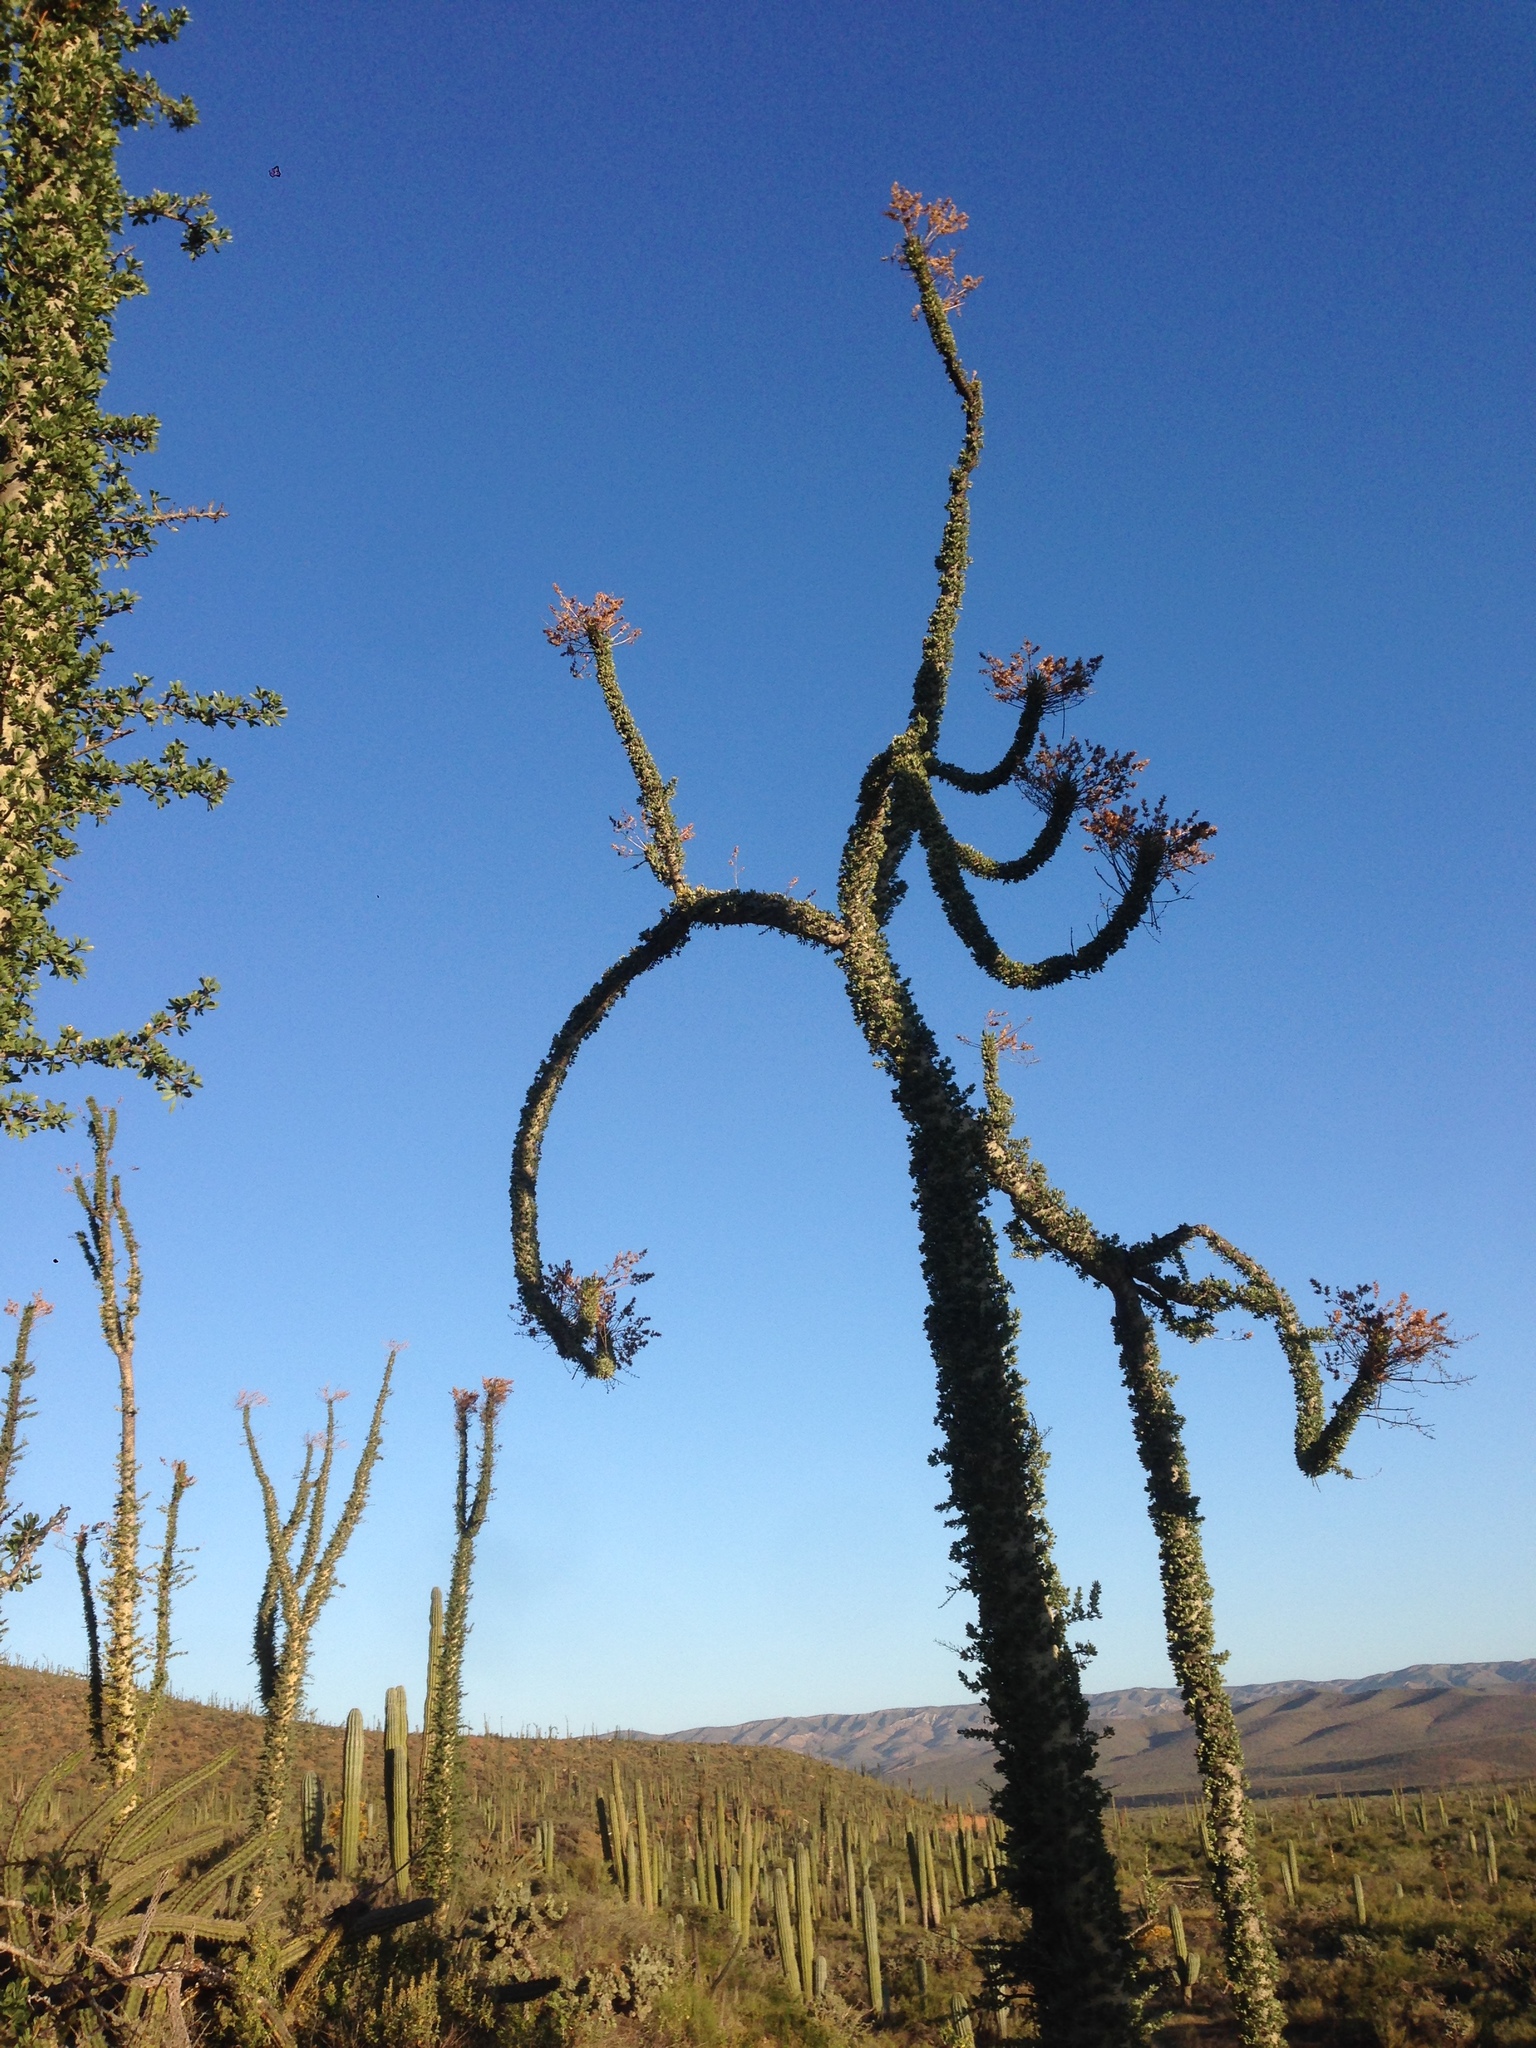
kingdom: Plantae
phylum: Tracheophyta
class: Magnoliopsida
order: Ericales
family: Fouquieriaceae
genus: Fouquieria
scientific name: Fouquieria columnaris
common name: Boojumtree
